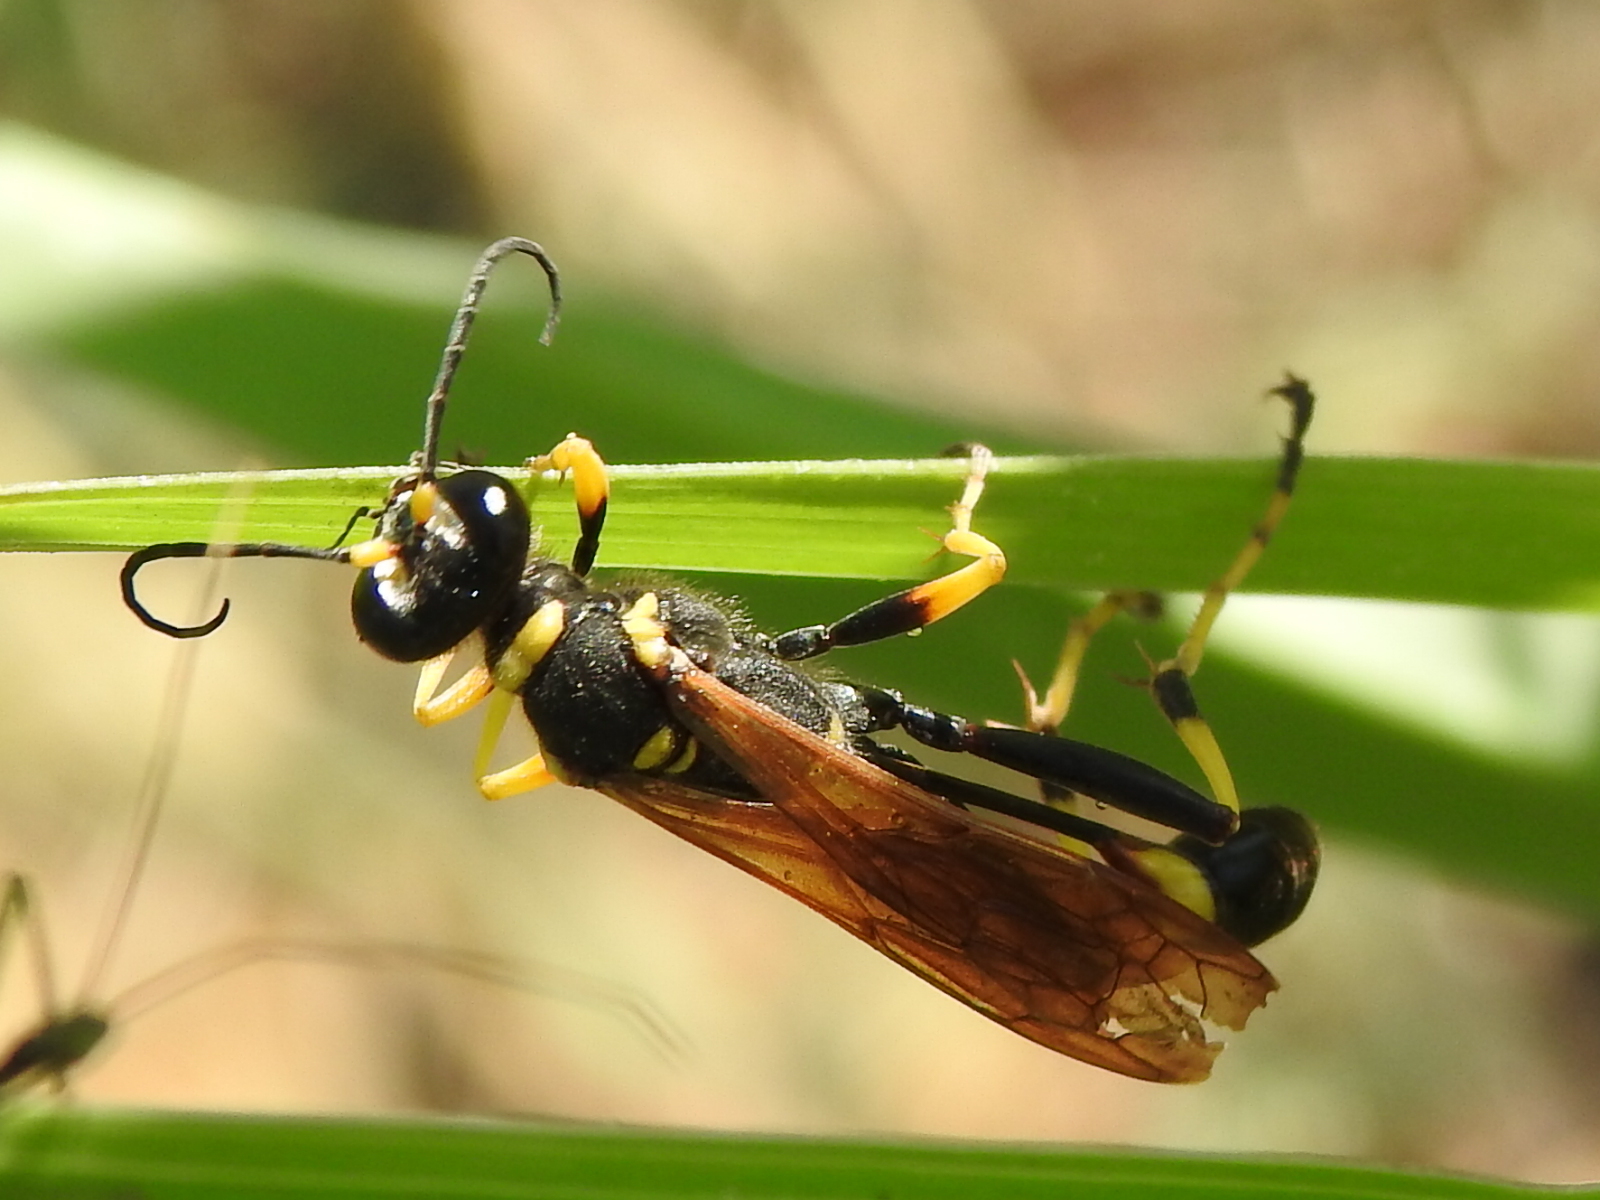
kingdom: Animalia
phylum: Arthropoda
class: Insecta
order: Hymenoptera
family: Sphecidae
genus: Sceliphron
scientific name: Sceliphron caementarium
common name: Mud dauber
